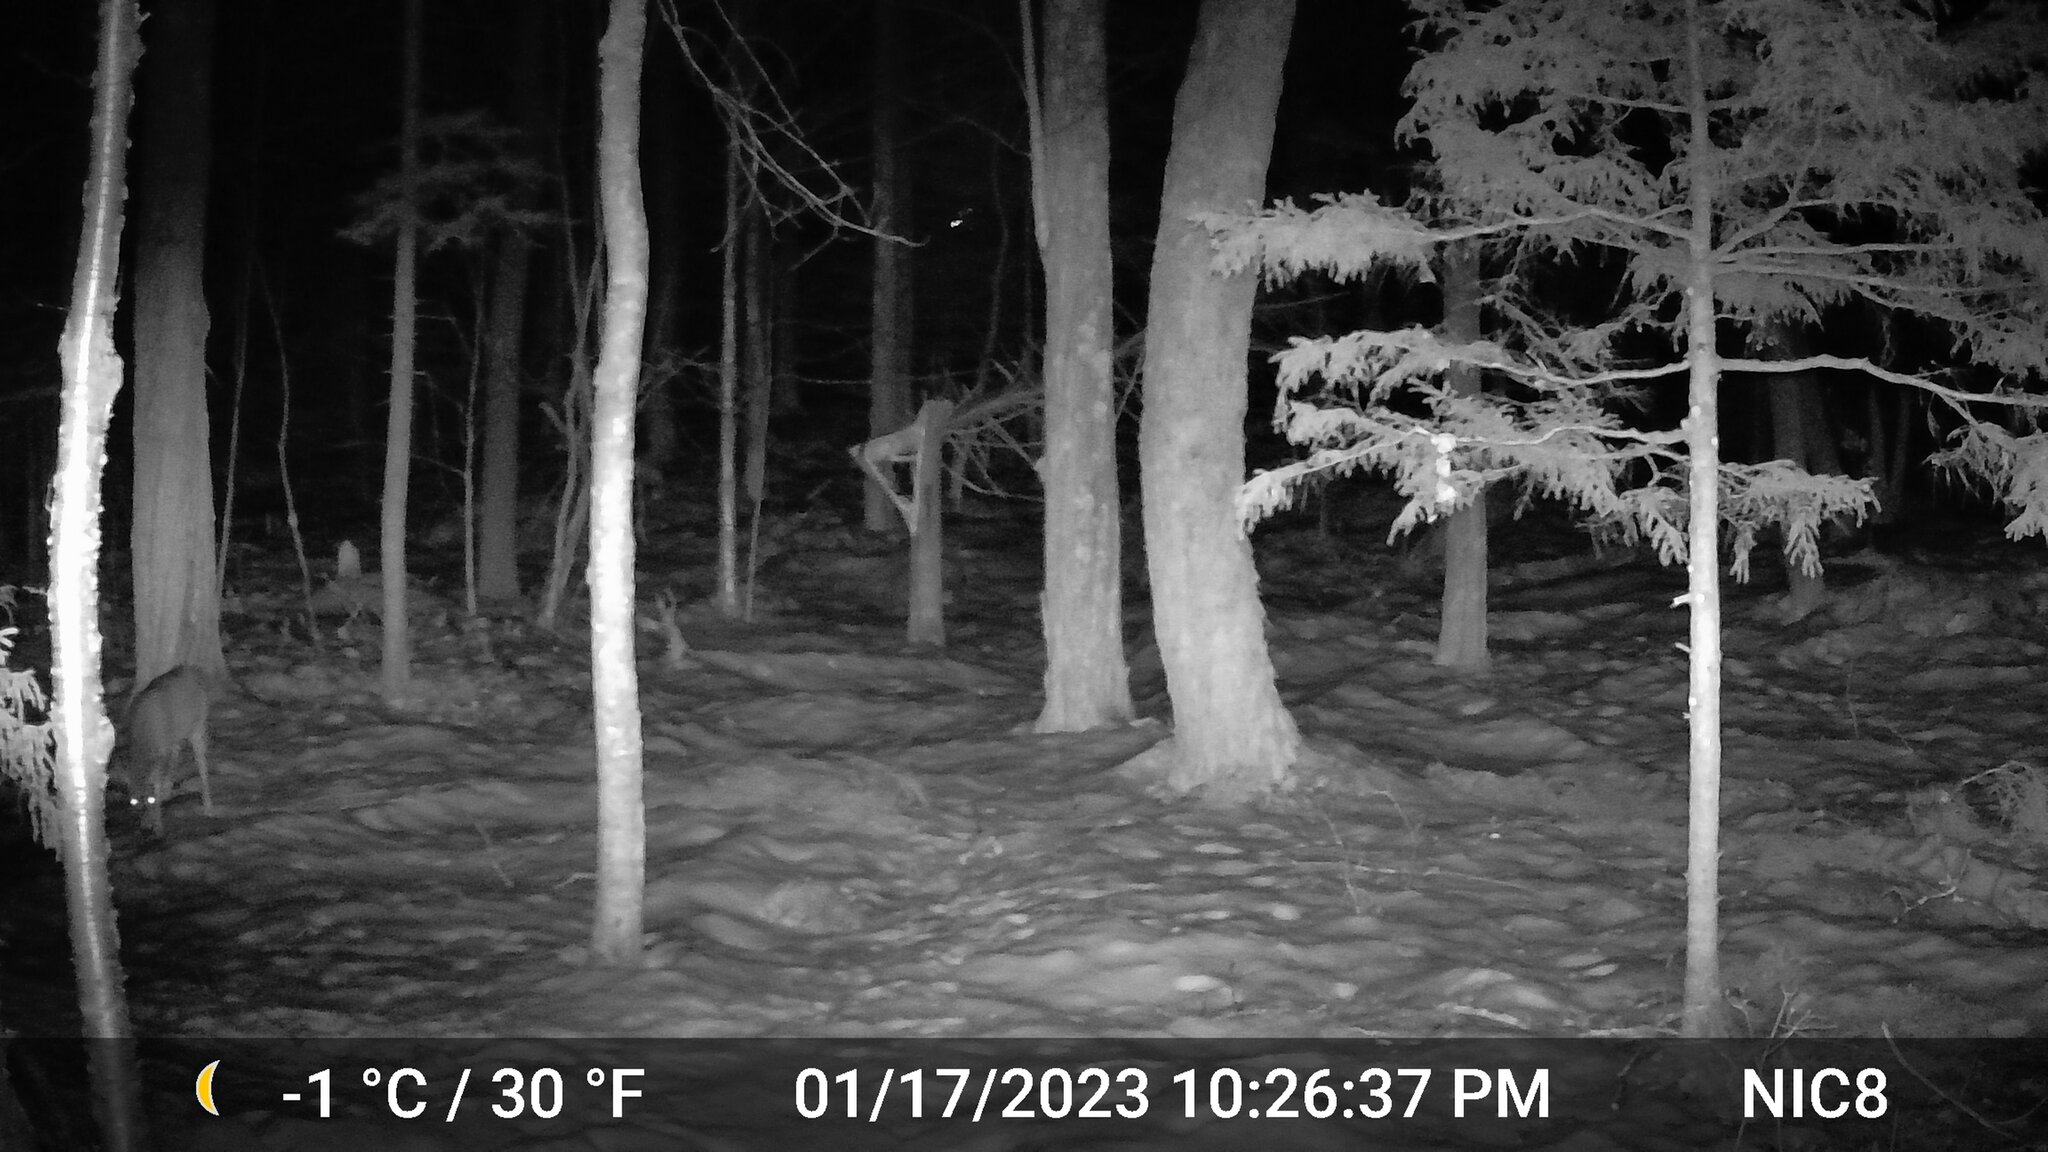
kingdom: Animalia
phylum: Chordata
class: Mammalia
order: Artiodactyla
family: Cervidae
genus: Odocoileus
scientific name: Odocoileus virginianus
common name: White-tailed deer
